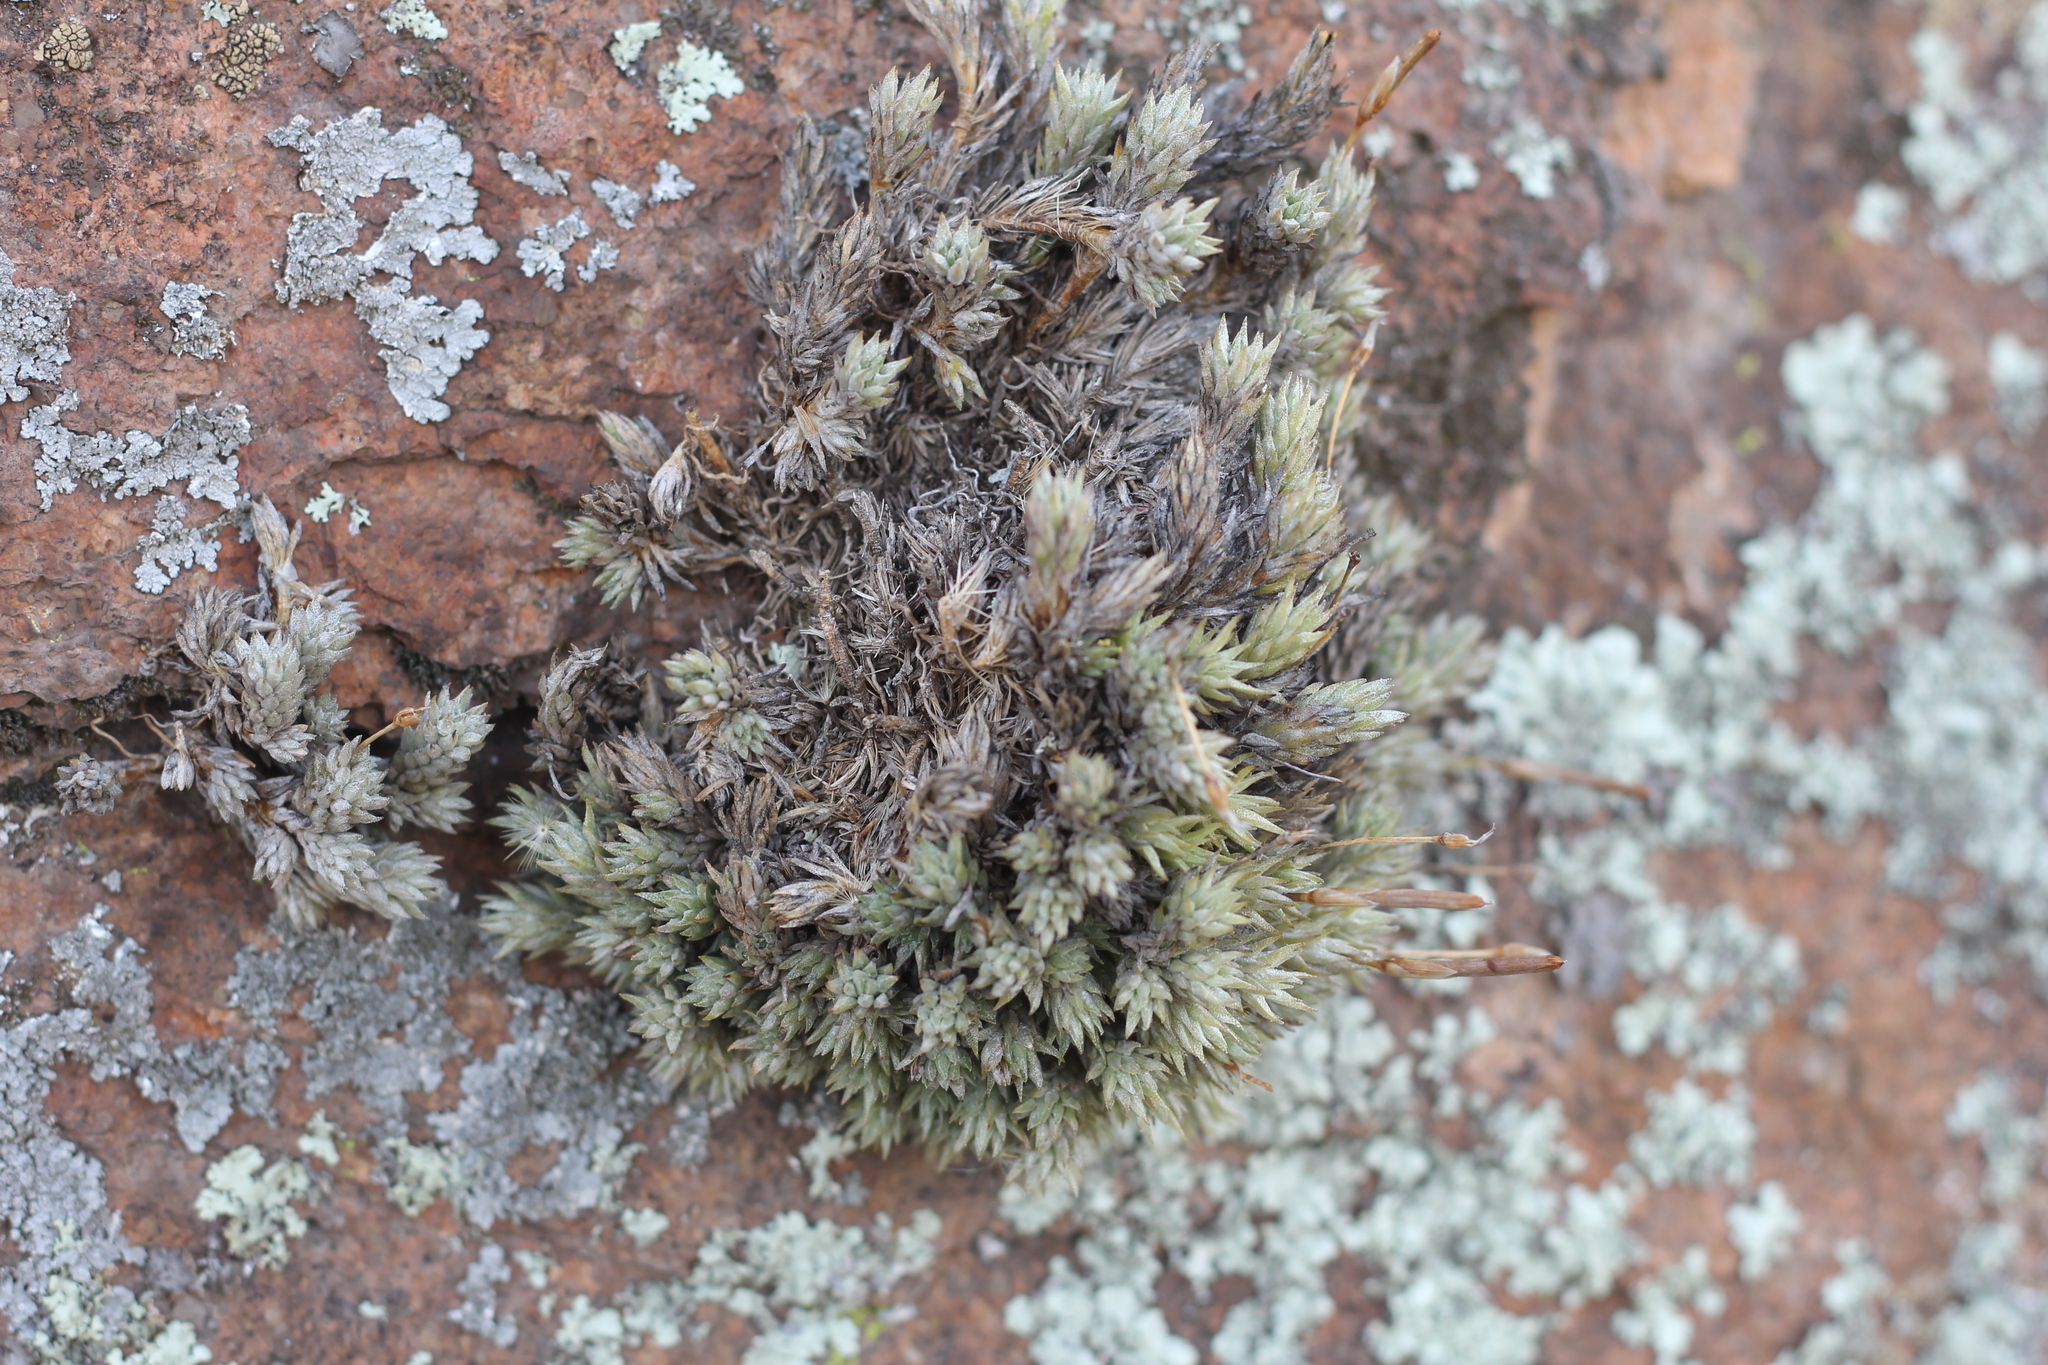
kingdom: Plantae
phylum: Tracheophyta
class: Liliopsida
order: Poales
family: Bromeliaceae
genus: Tillandsia
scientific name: Tillandsia pedicellata
